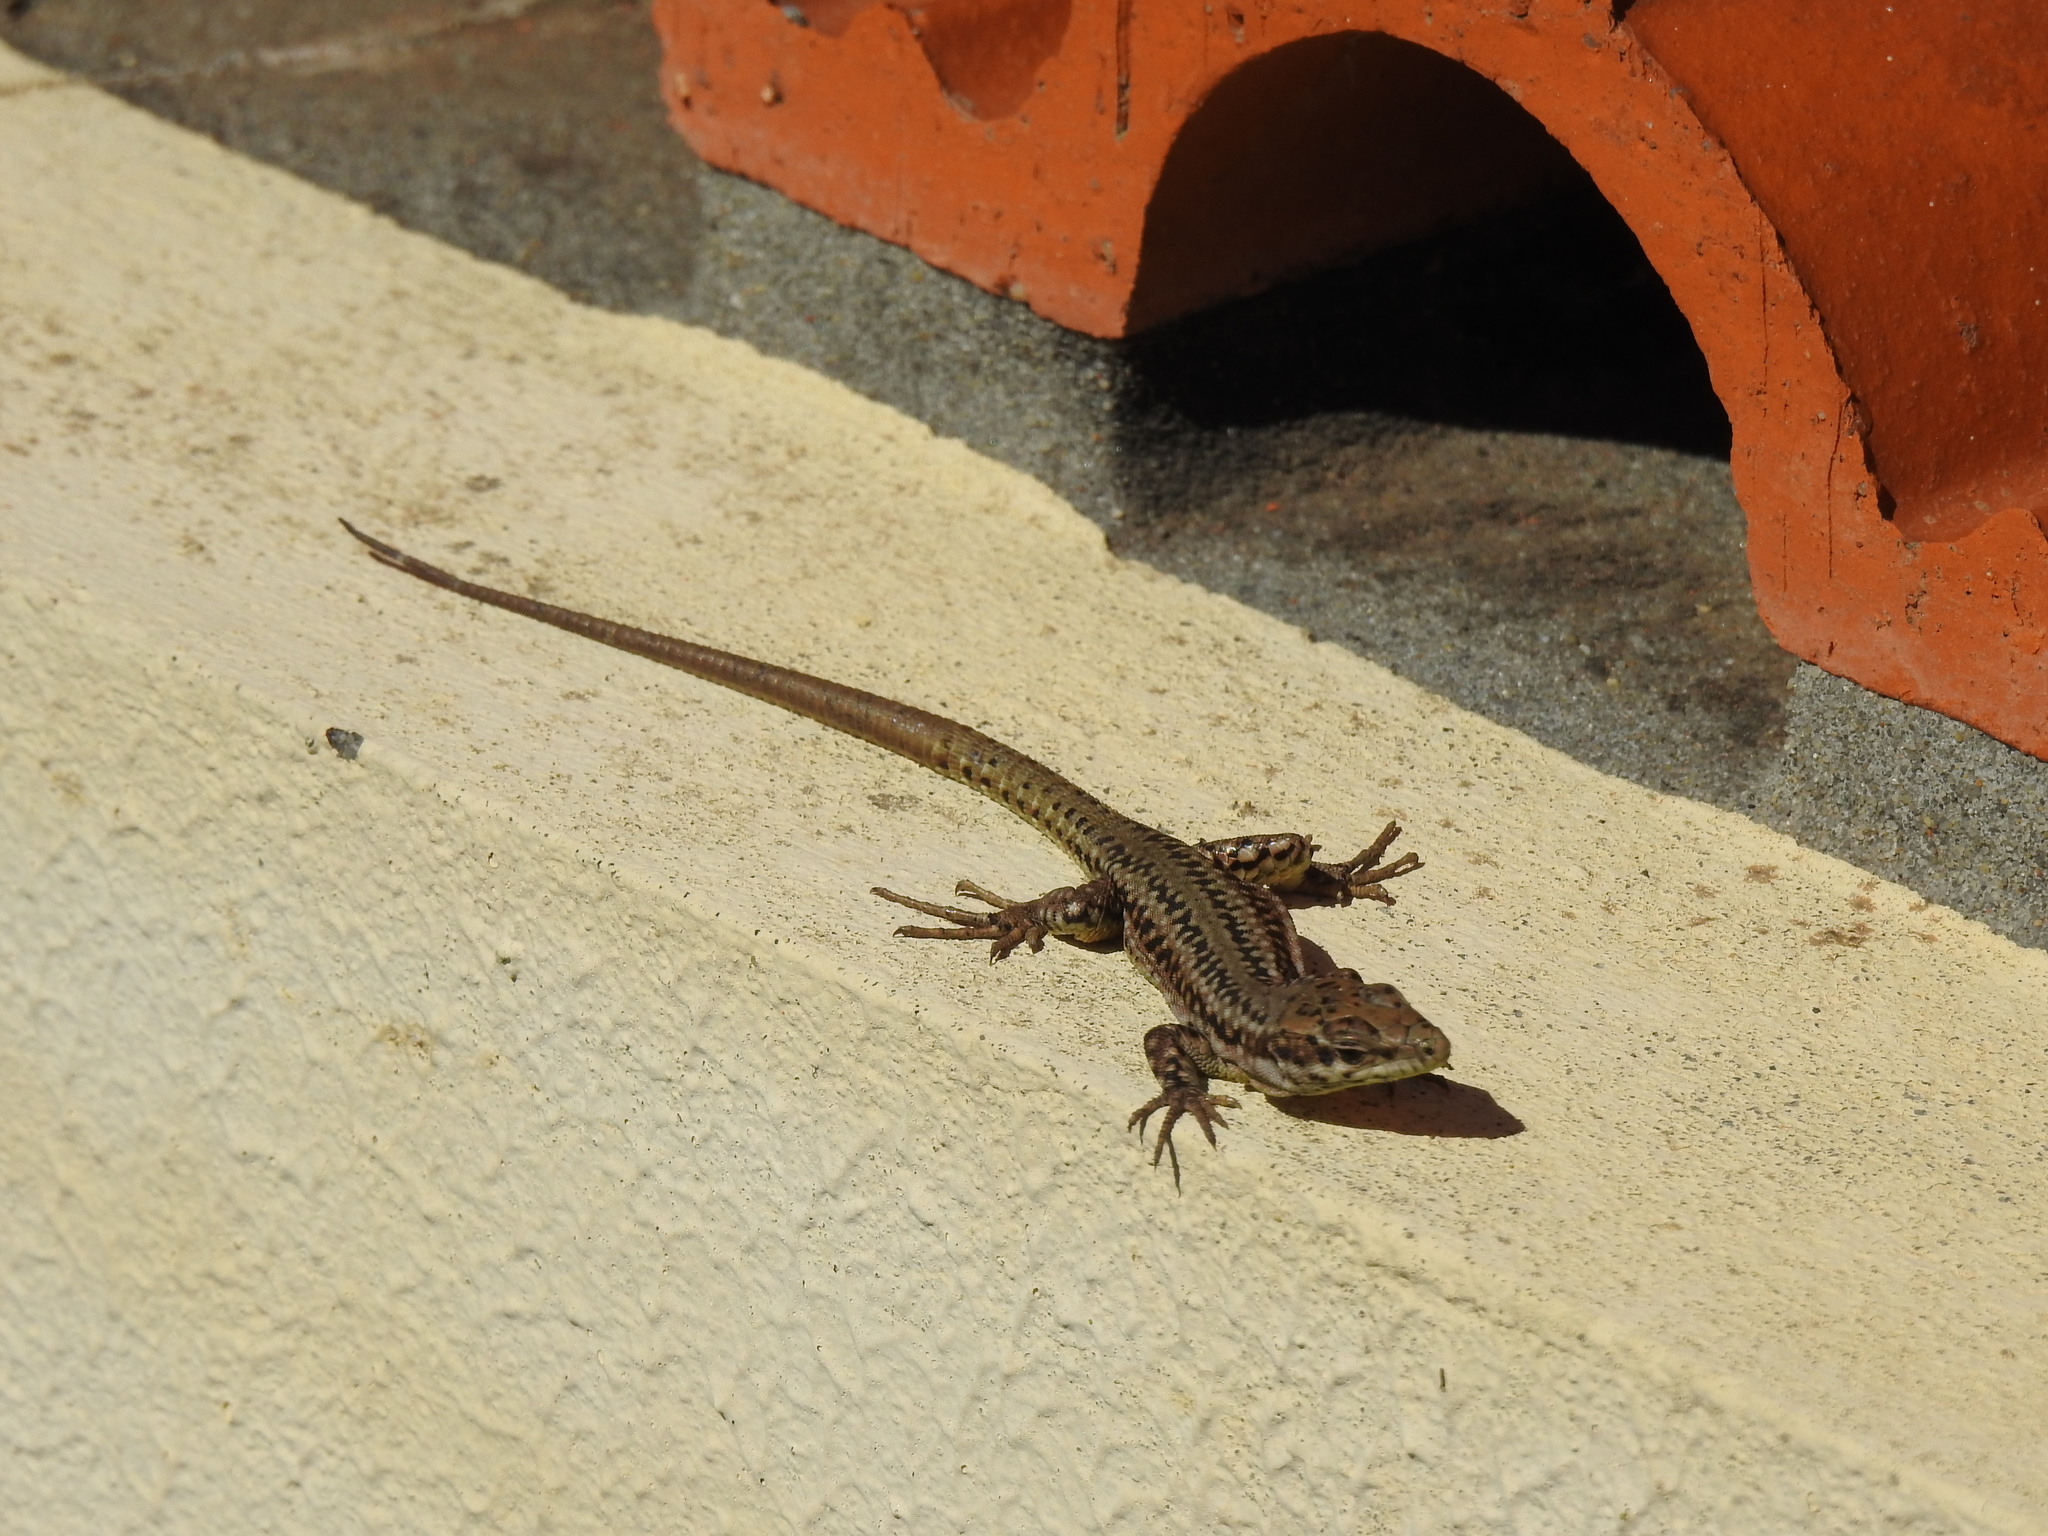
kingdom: Animalia
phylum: Chordata
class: Squamata
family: Lacertidae
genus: Podarcis
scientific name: Podarcis virescens
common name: Geniez’s wall lizard
